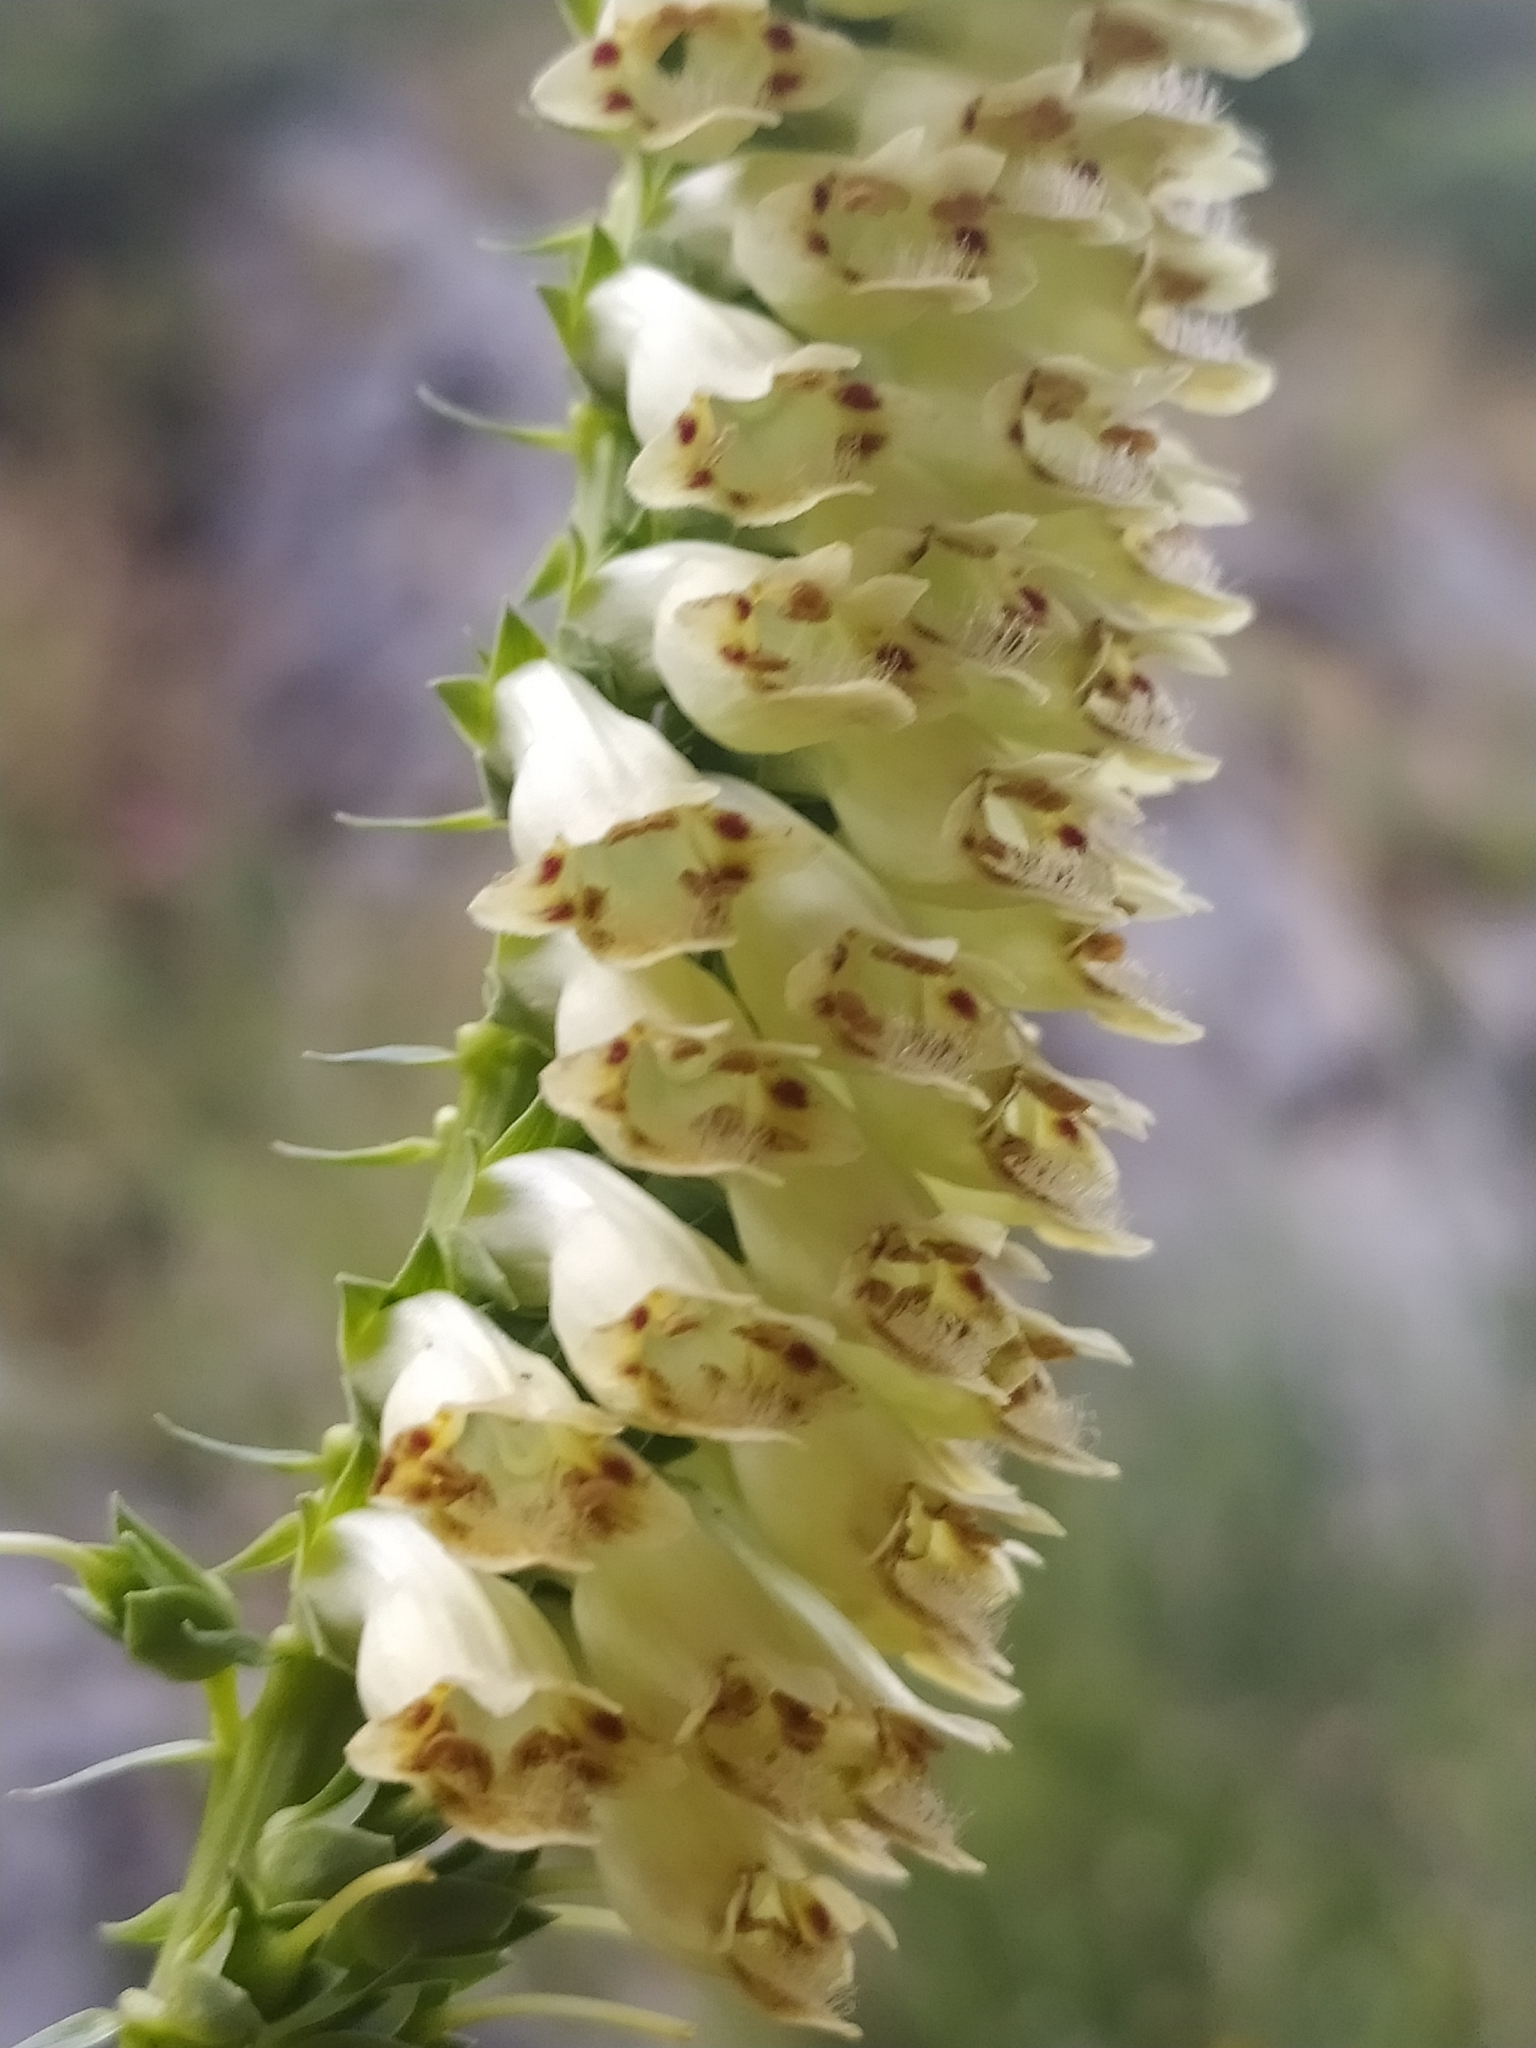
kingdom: Plantae
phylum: Tracheophyta
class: Magnoliopsida
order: Lamiales
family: Plantaginaceae
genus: Digitalis
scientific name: Digitalis lutea
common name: Straw foxglove
